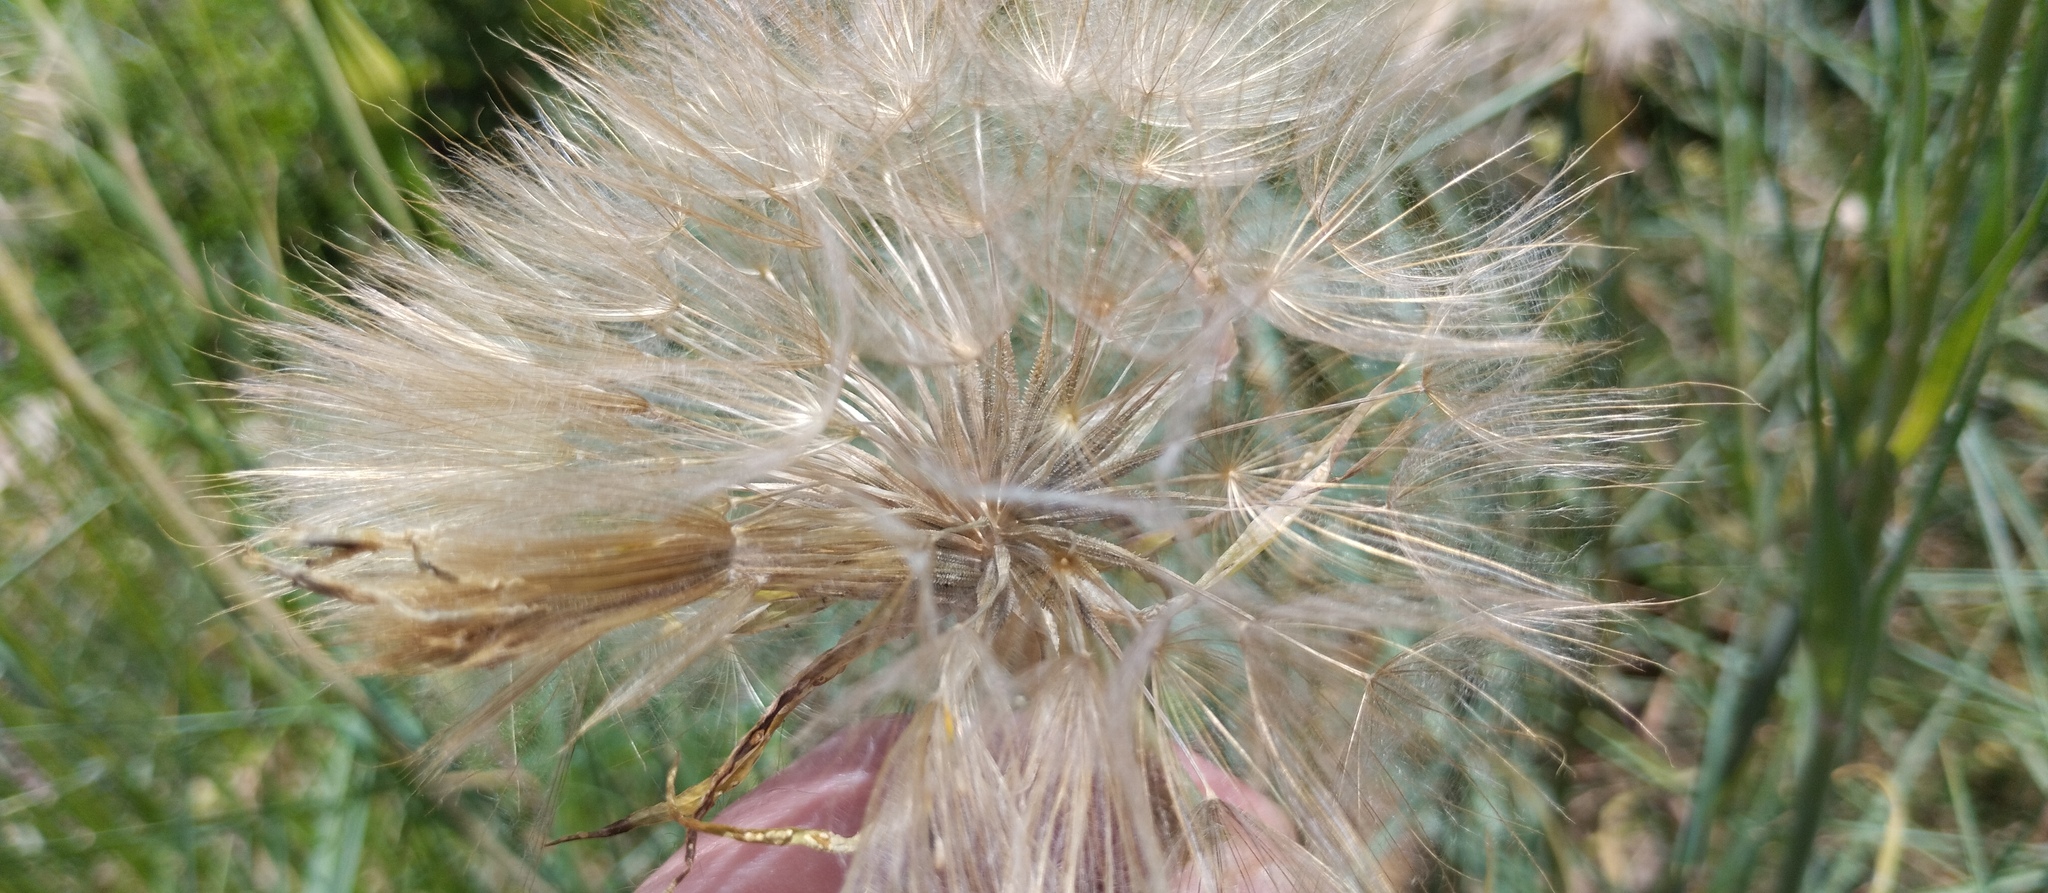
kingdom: Plantae
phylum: Tracheophyta
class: Magnoliopsida
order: Asterales
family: Asteraceae
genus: Tragopogon
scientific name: Tragopogon dubius
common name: Yellow salsify
